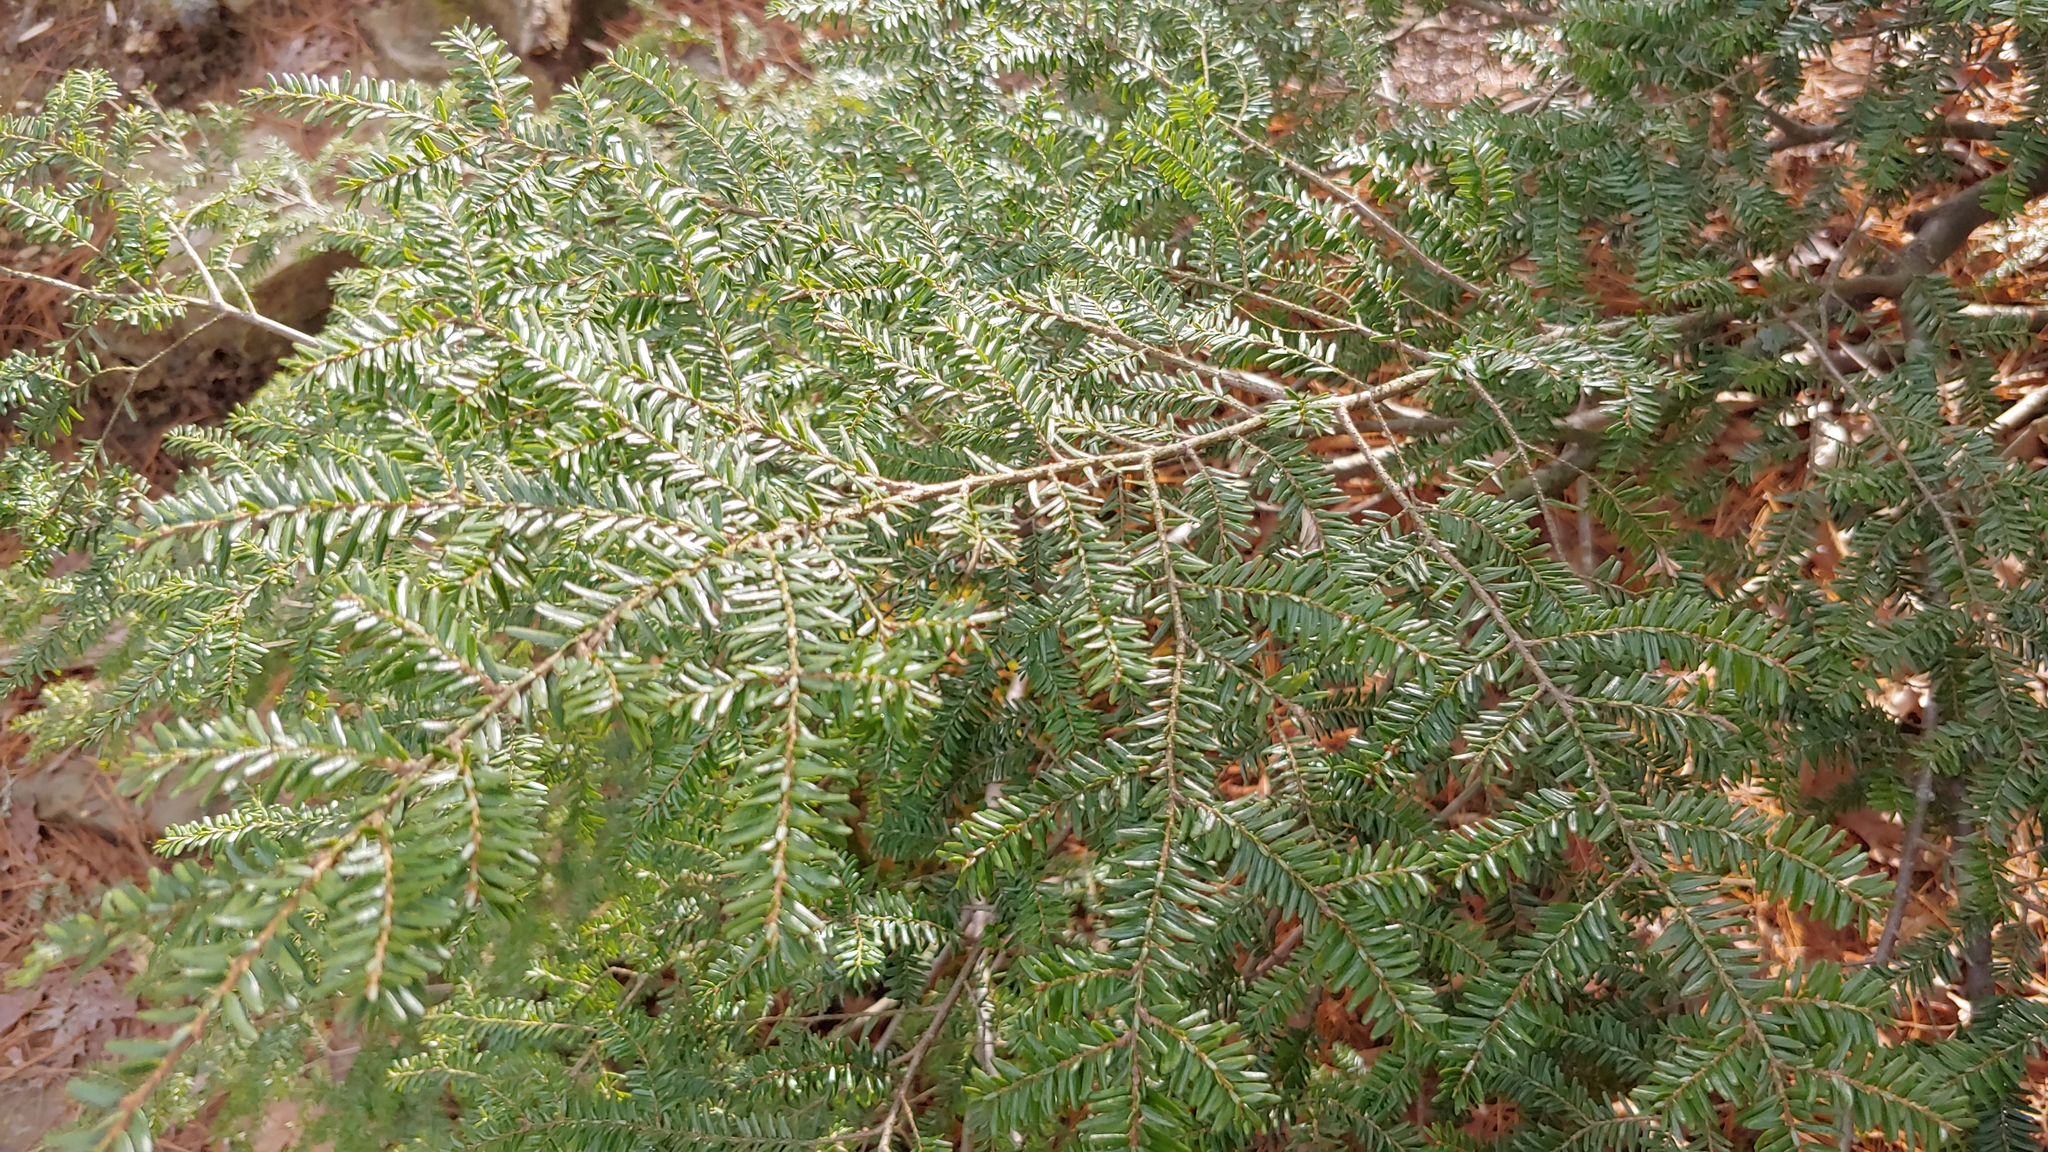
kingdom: Plantae
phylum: Tracheophyta
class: Pinopsida
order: Pinales
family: Pinaceae
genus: Tsuga
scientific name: Tsuga canadensis
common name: Eastern hemlock
